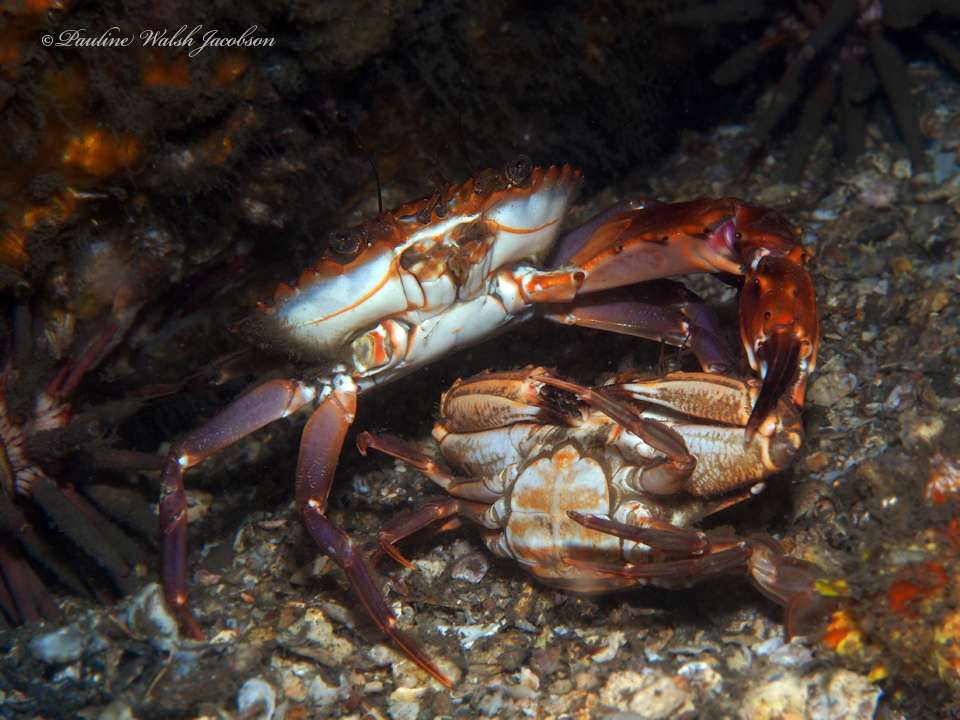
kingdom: Animalia
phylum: Arthropoda
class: Malacostraca
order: Decapoda
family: Portunidae
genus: Charybdis
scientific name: Charybdis hellerii
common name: Spiny hands
